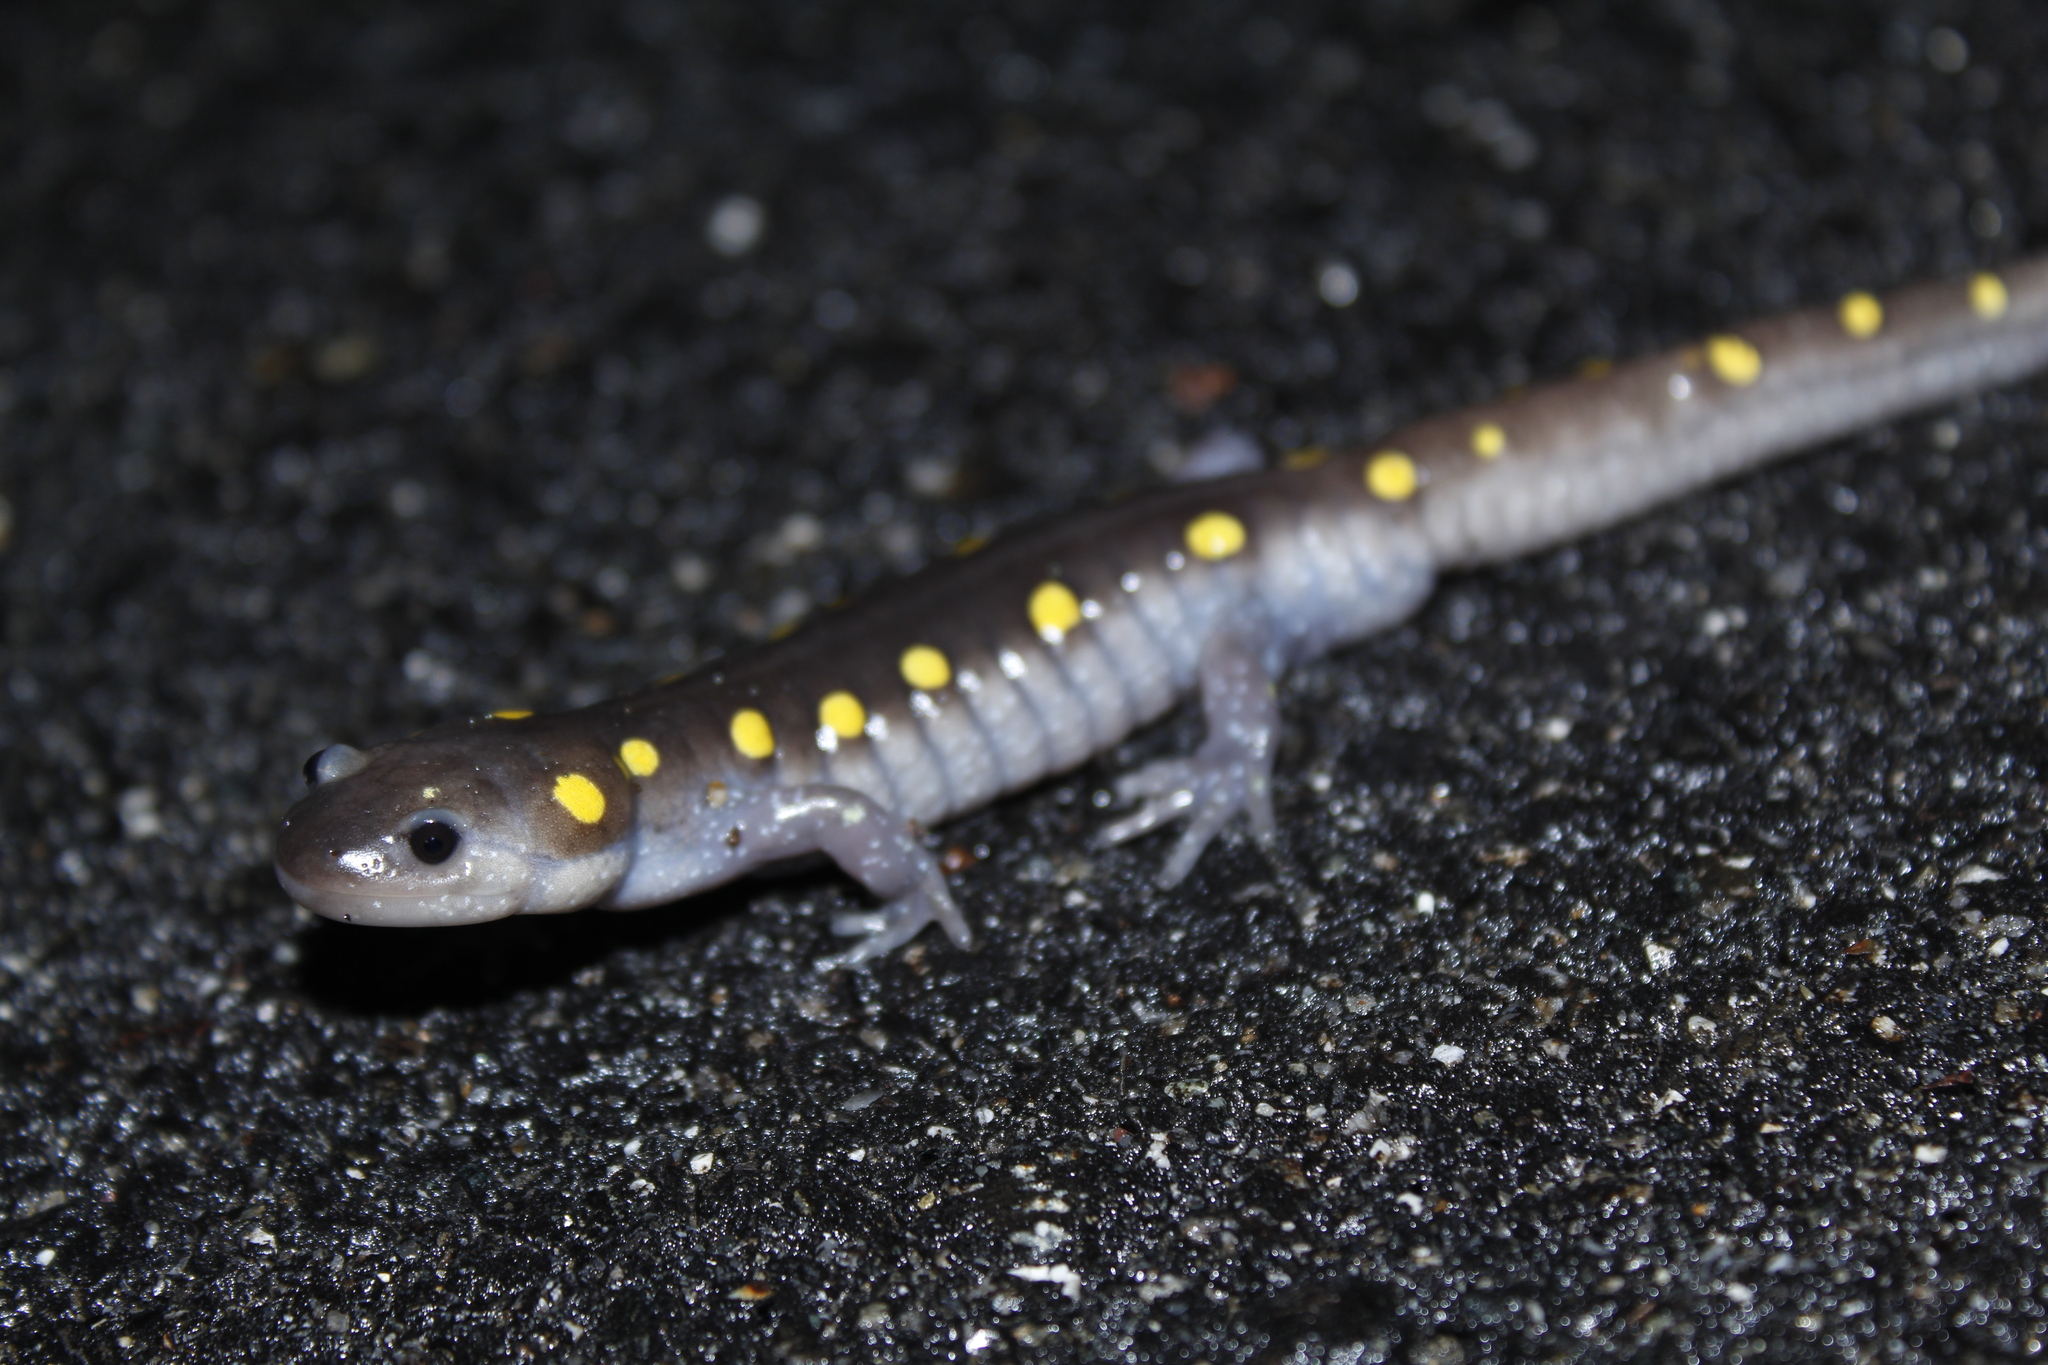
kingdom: Animalia
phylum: Chordata
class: Amphibia
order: Caudata
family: Ambystomatidae
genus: Ambystoma
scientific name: Ambystoma maculatum
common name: Spotted salamander
